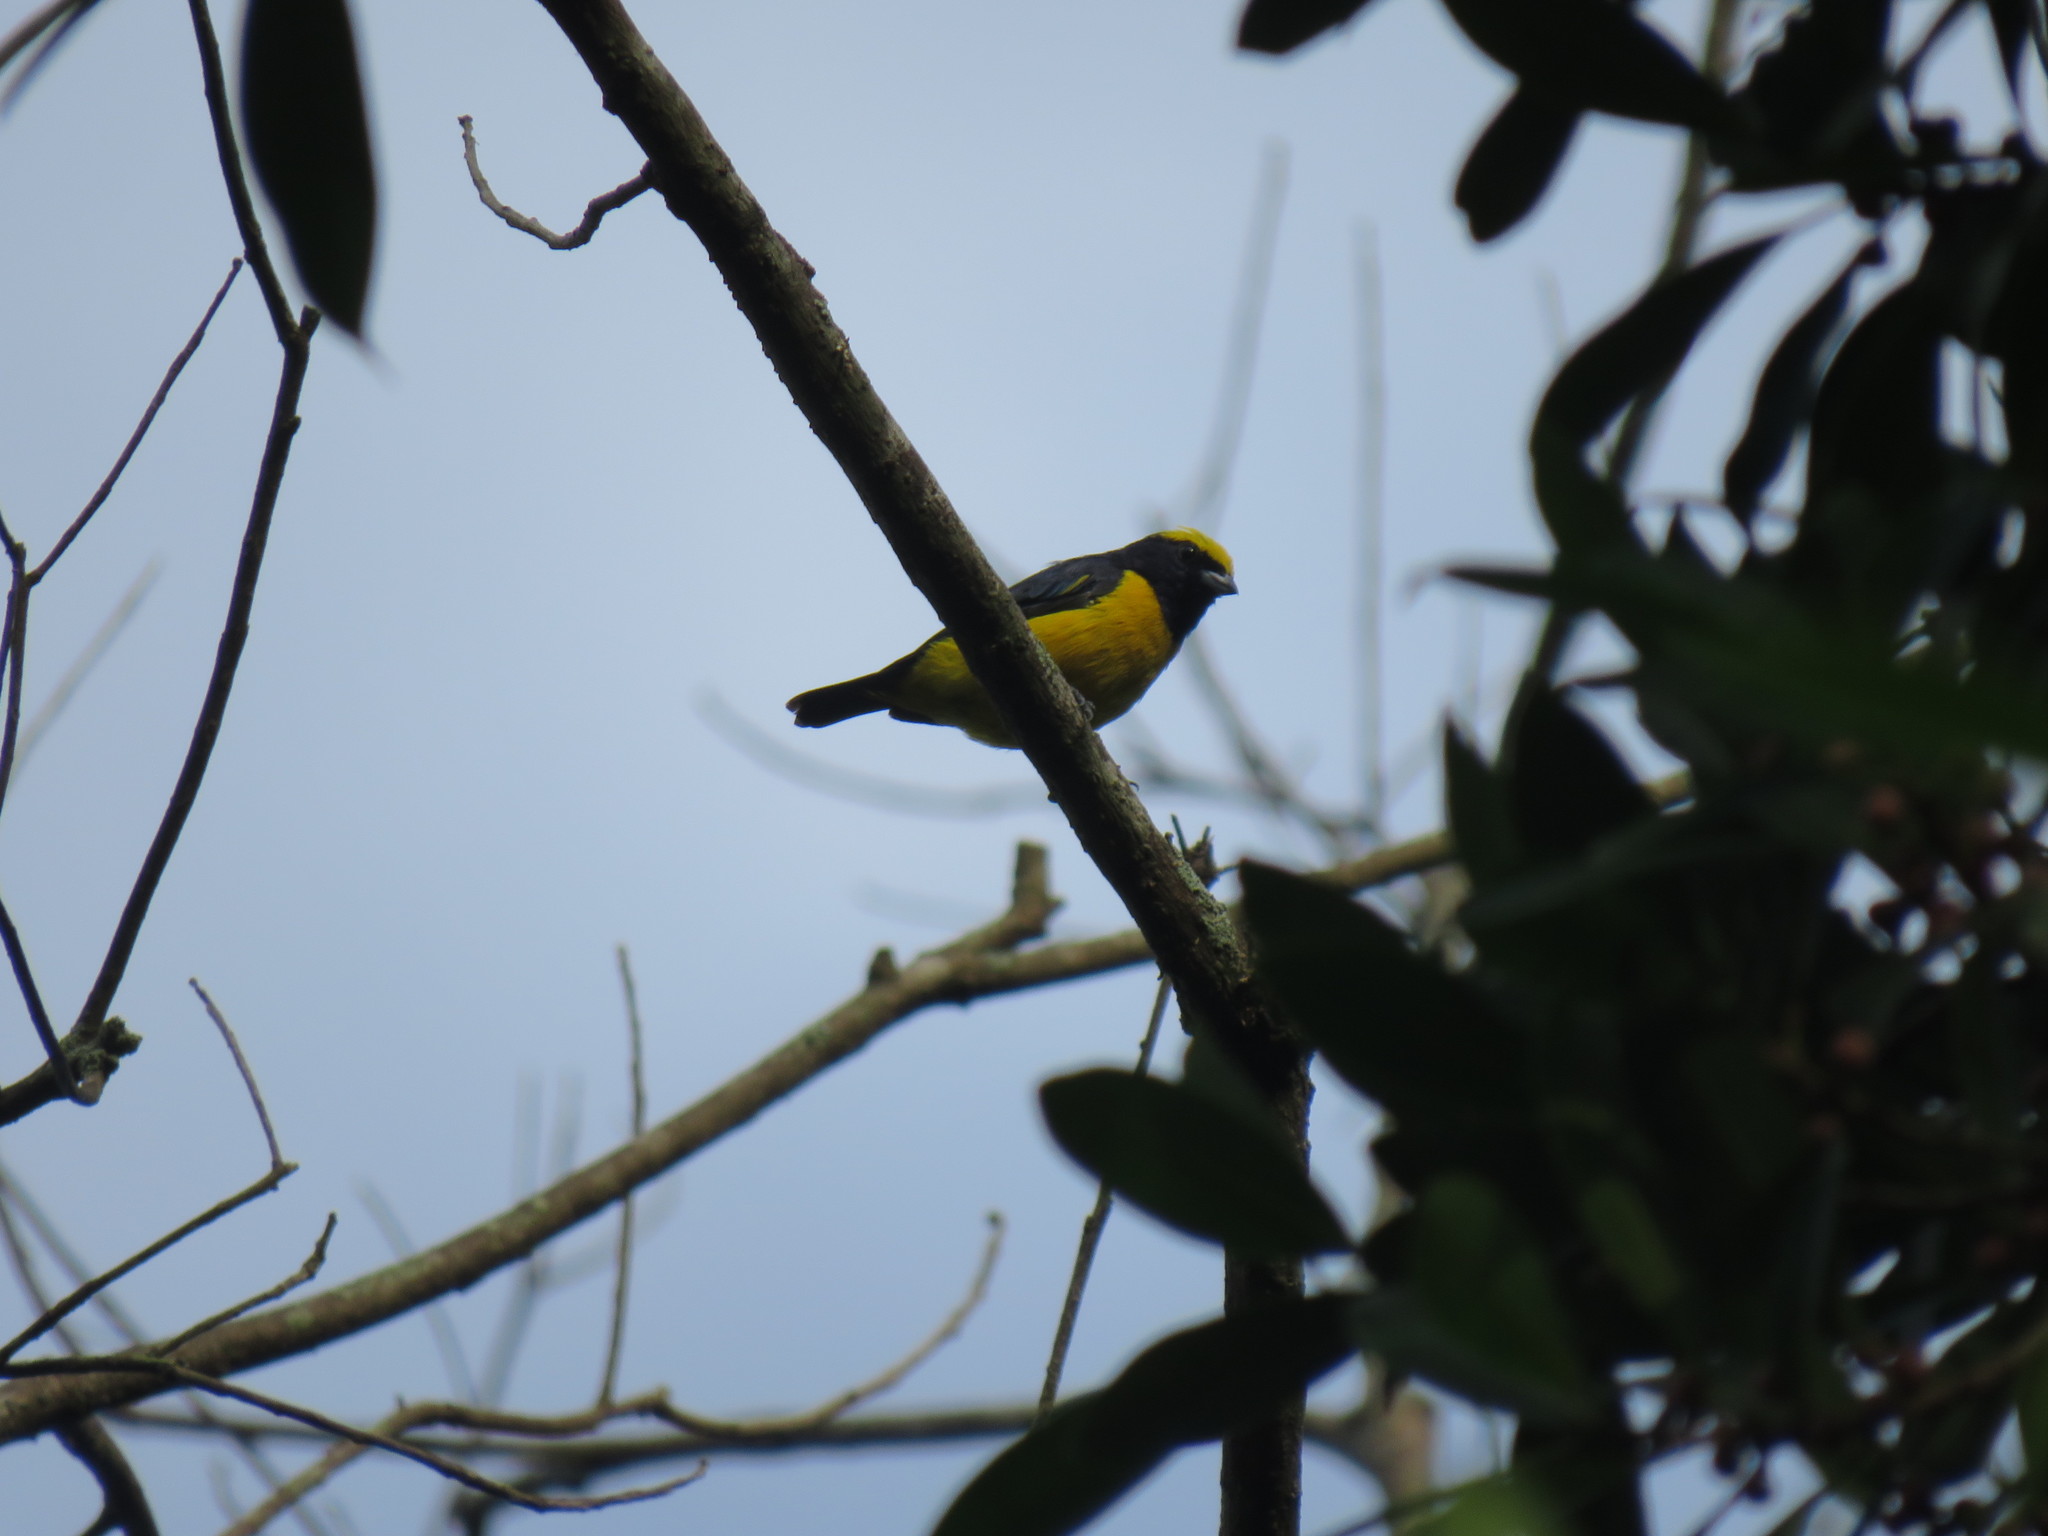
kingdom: Animalia
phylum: Chordata
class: Aves
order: Passeriformes
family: Fringillidae
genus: Euphonia
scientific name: Euphonia luteicapilla
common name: Yellow-crowned euphonia
